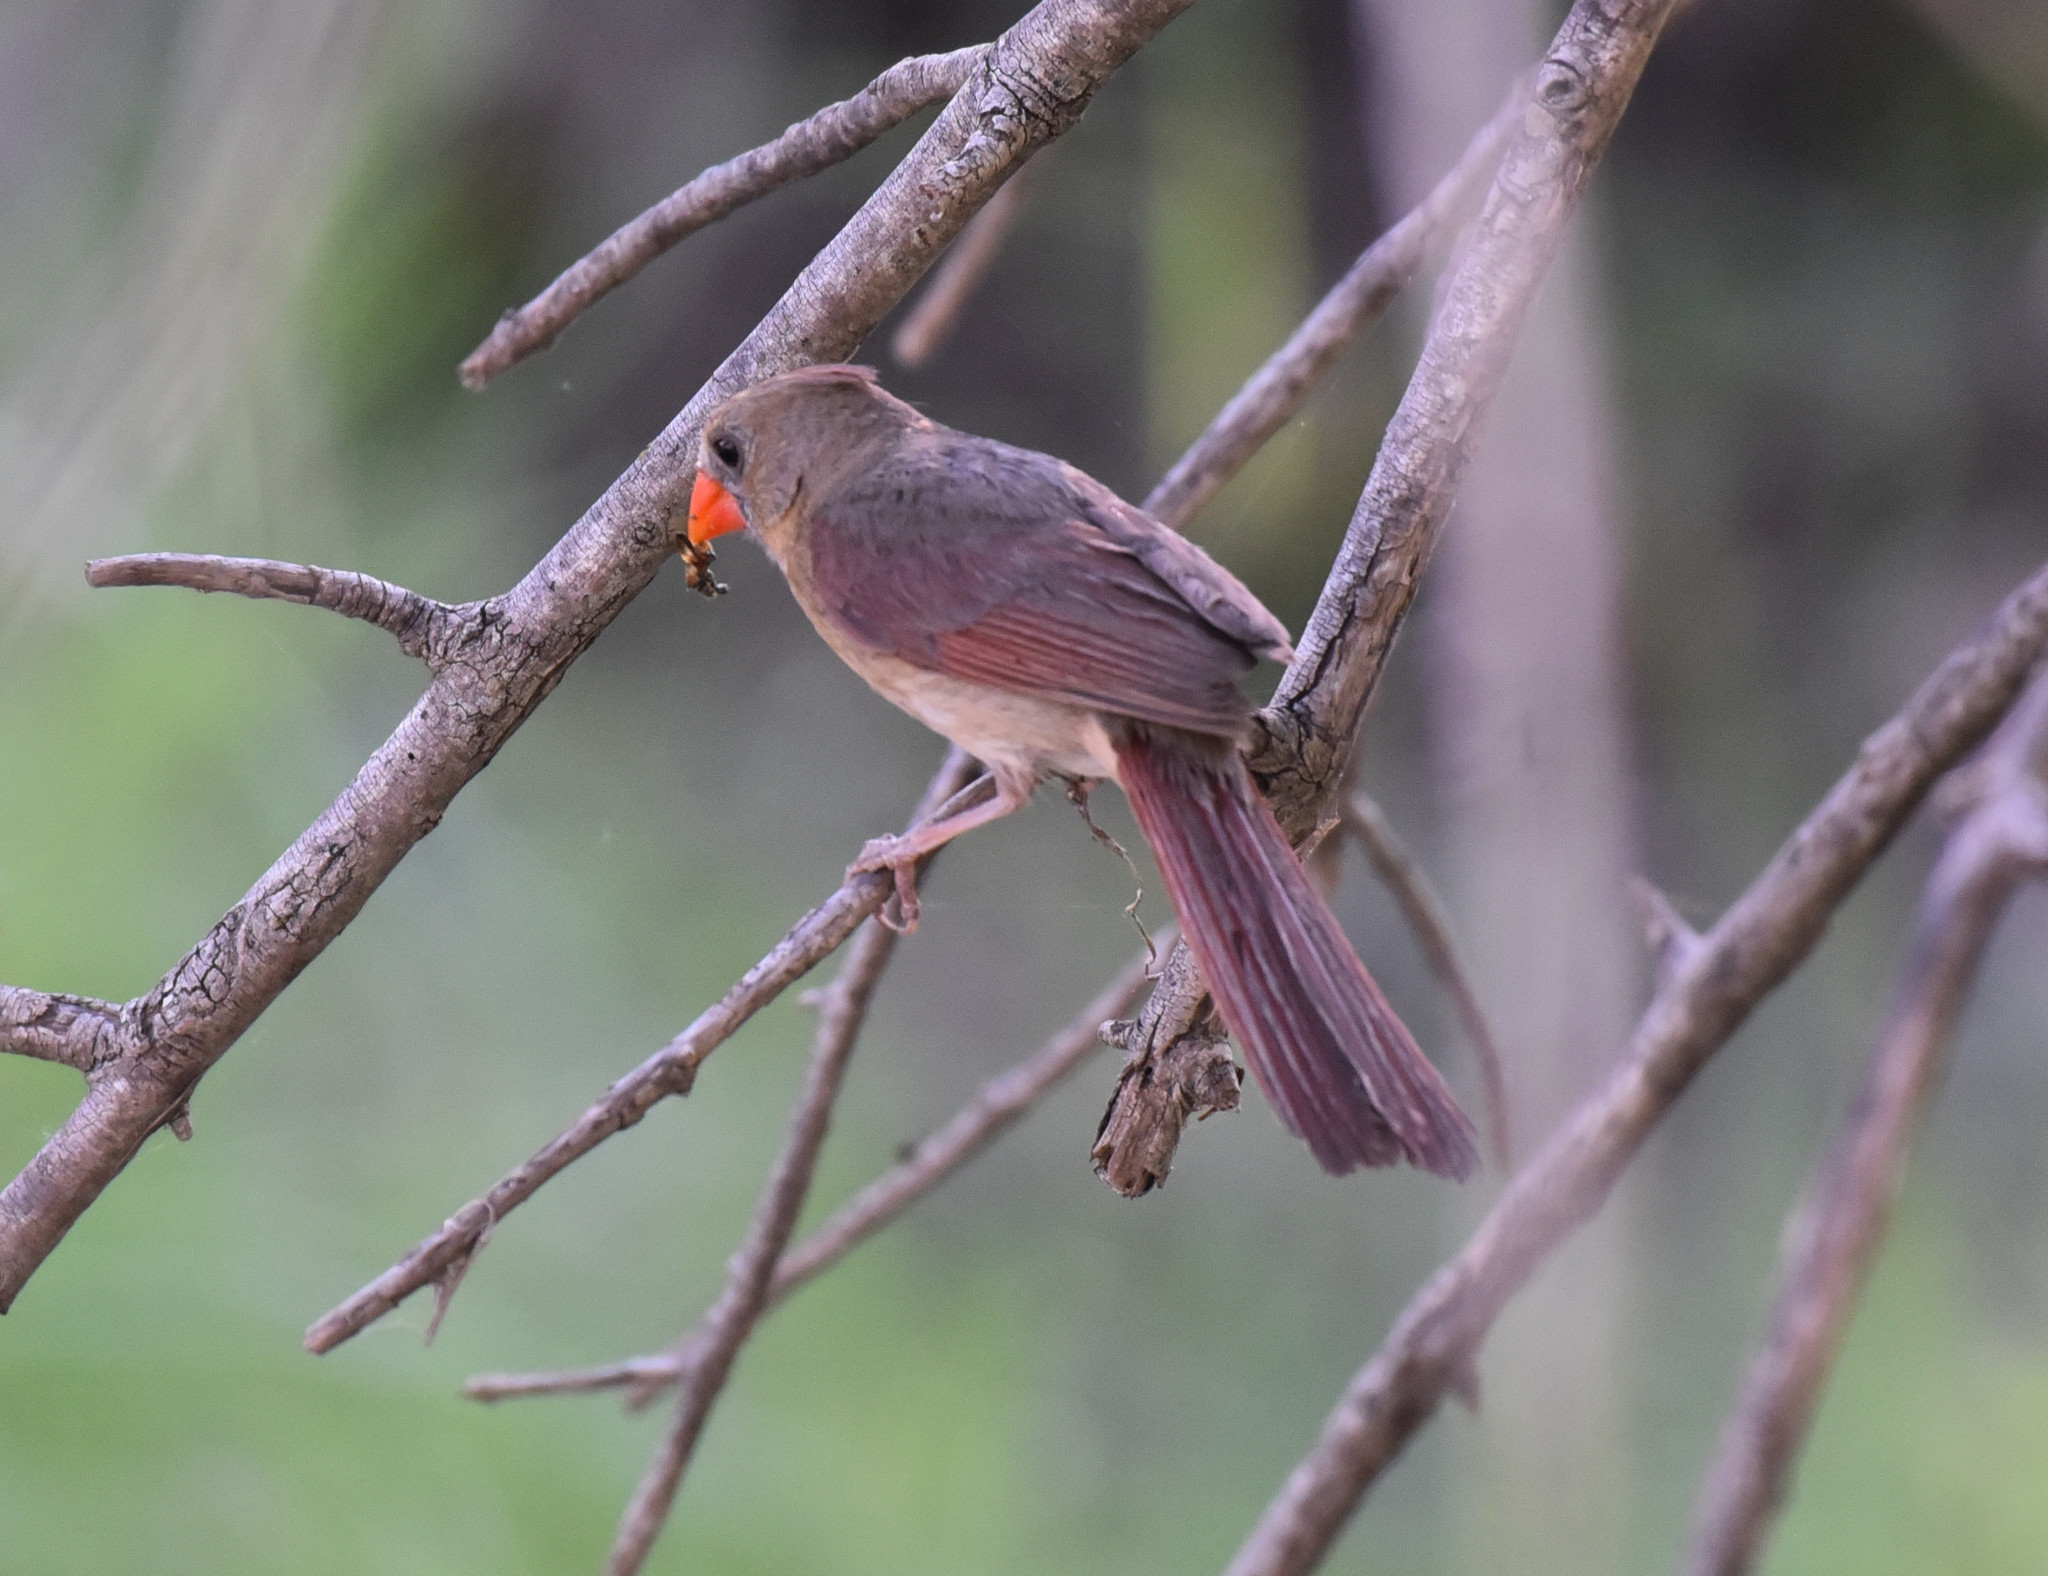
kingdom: Animalia
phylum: Chordata
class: Aves
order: Passeriformes
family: Cardinalidae
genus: Cardinalis
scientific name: Cardinalis cardinalis
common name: Northern cardinal
